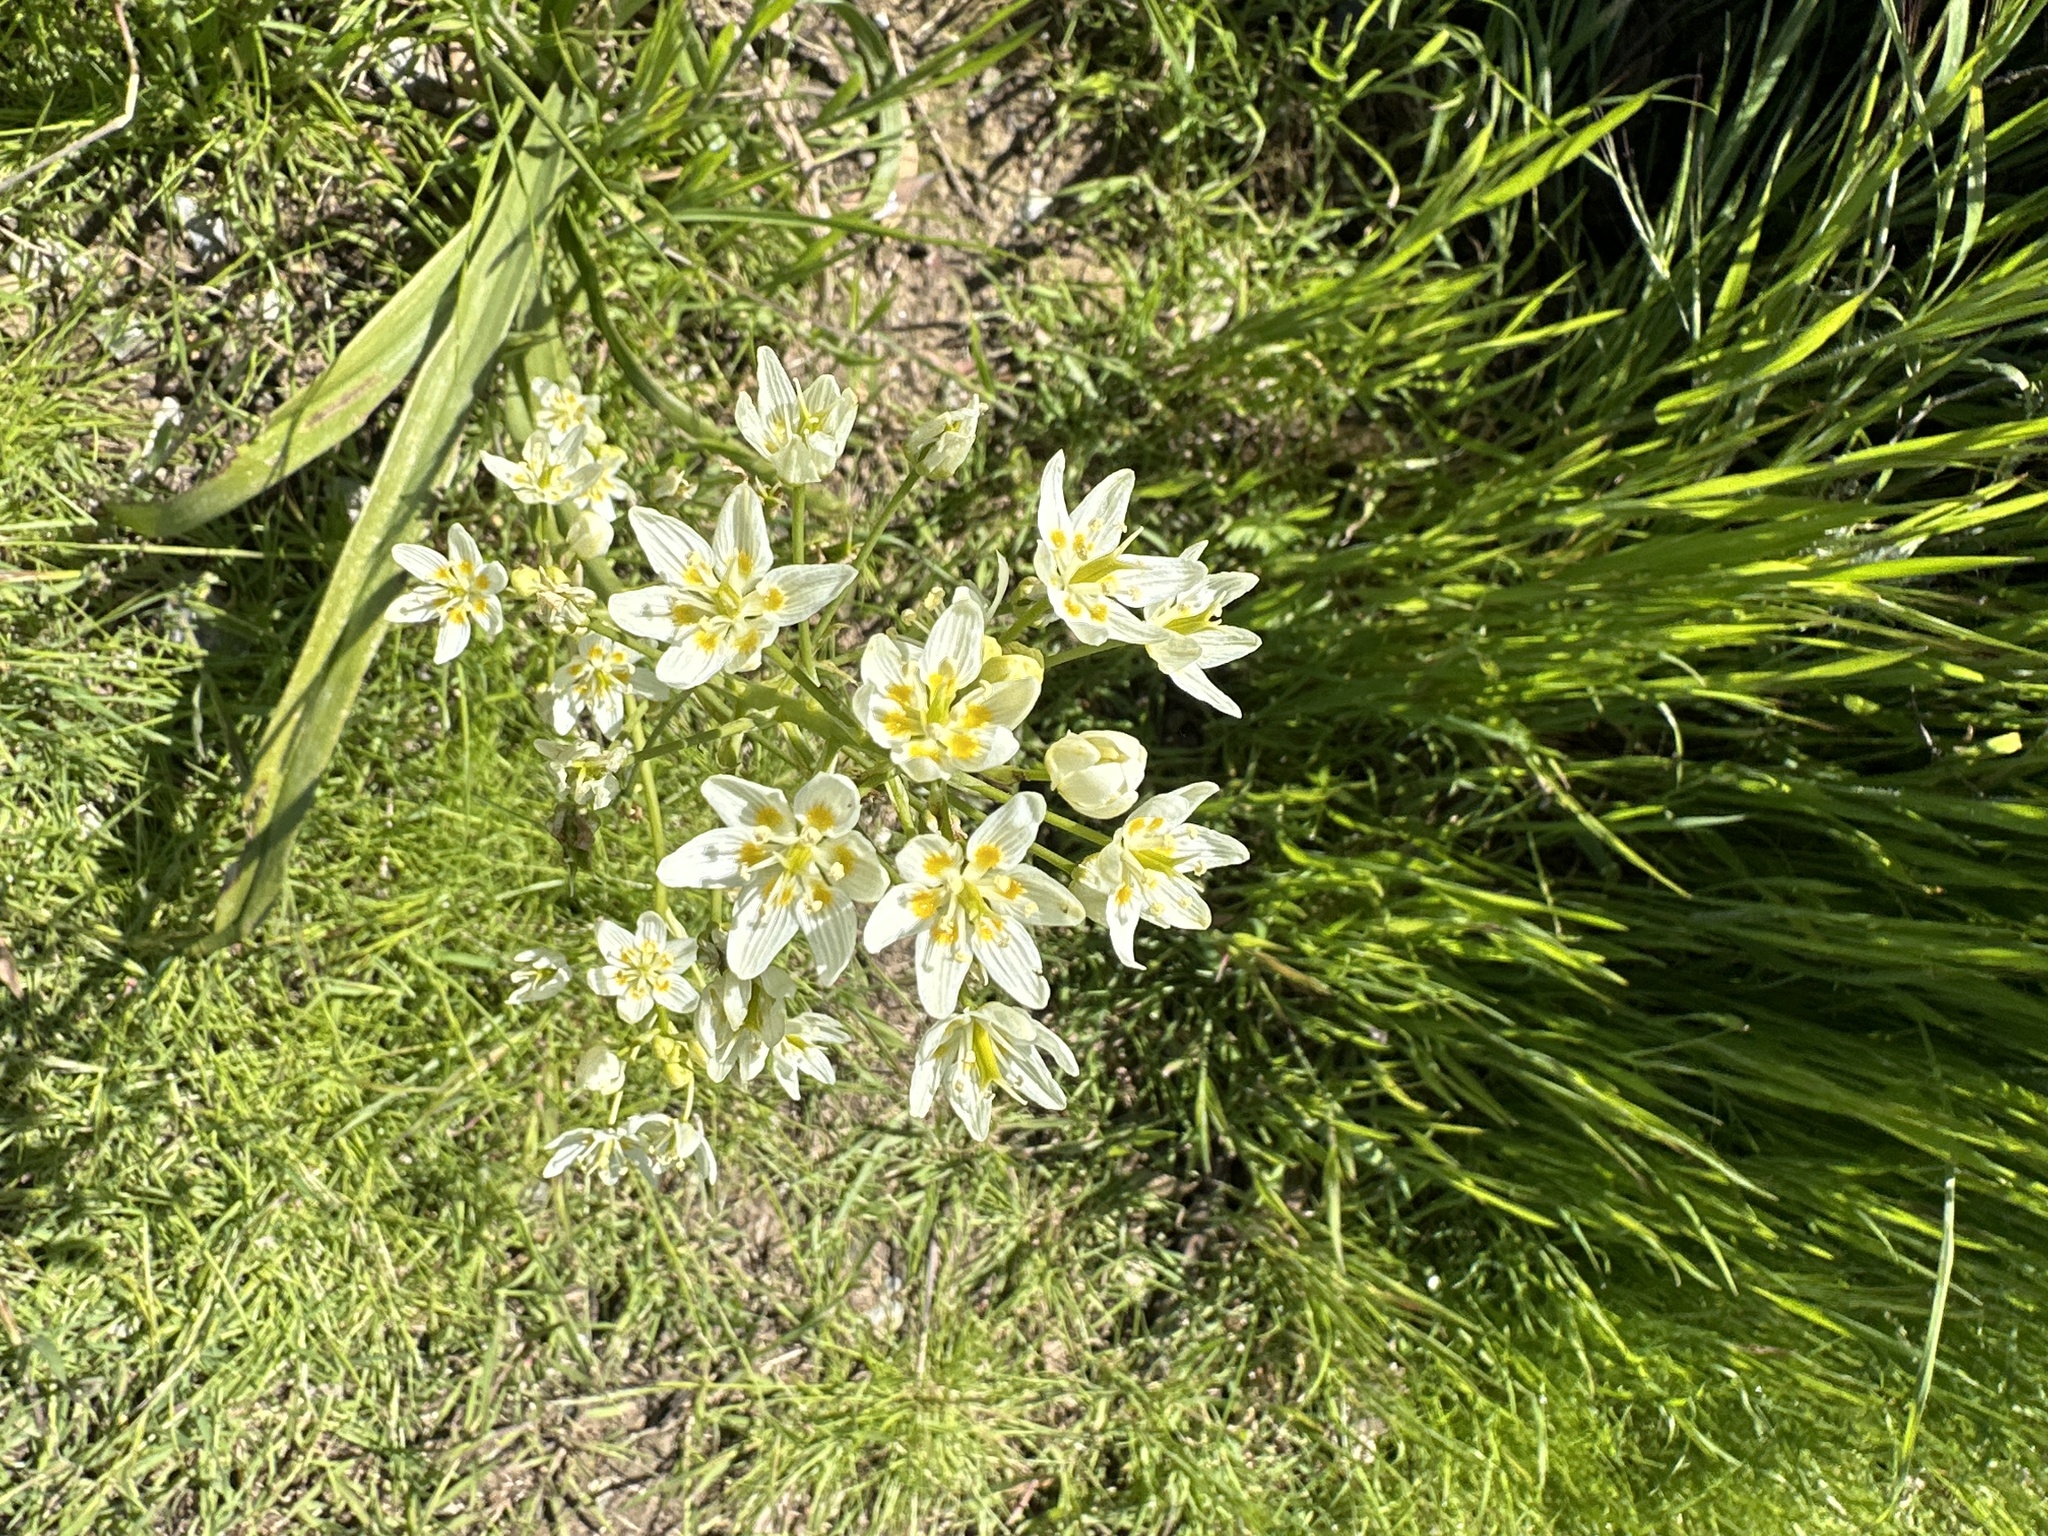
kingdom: Plantae
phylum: Tracheophyta
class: Liliopsida
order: Liliales
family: Melanthiaceae
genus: Toxicoscordion
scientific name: Toxicoscordion fremontii
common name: Fremont's death camas
